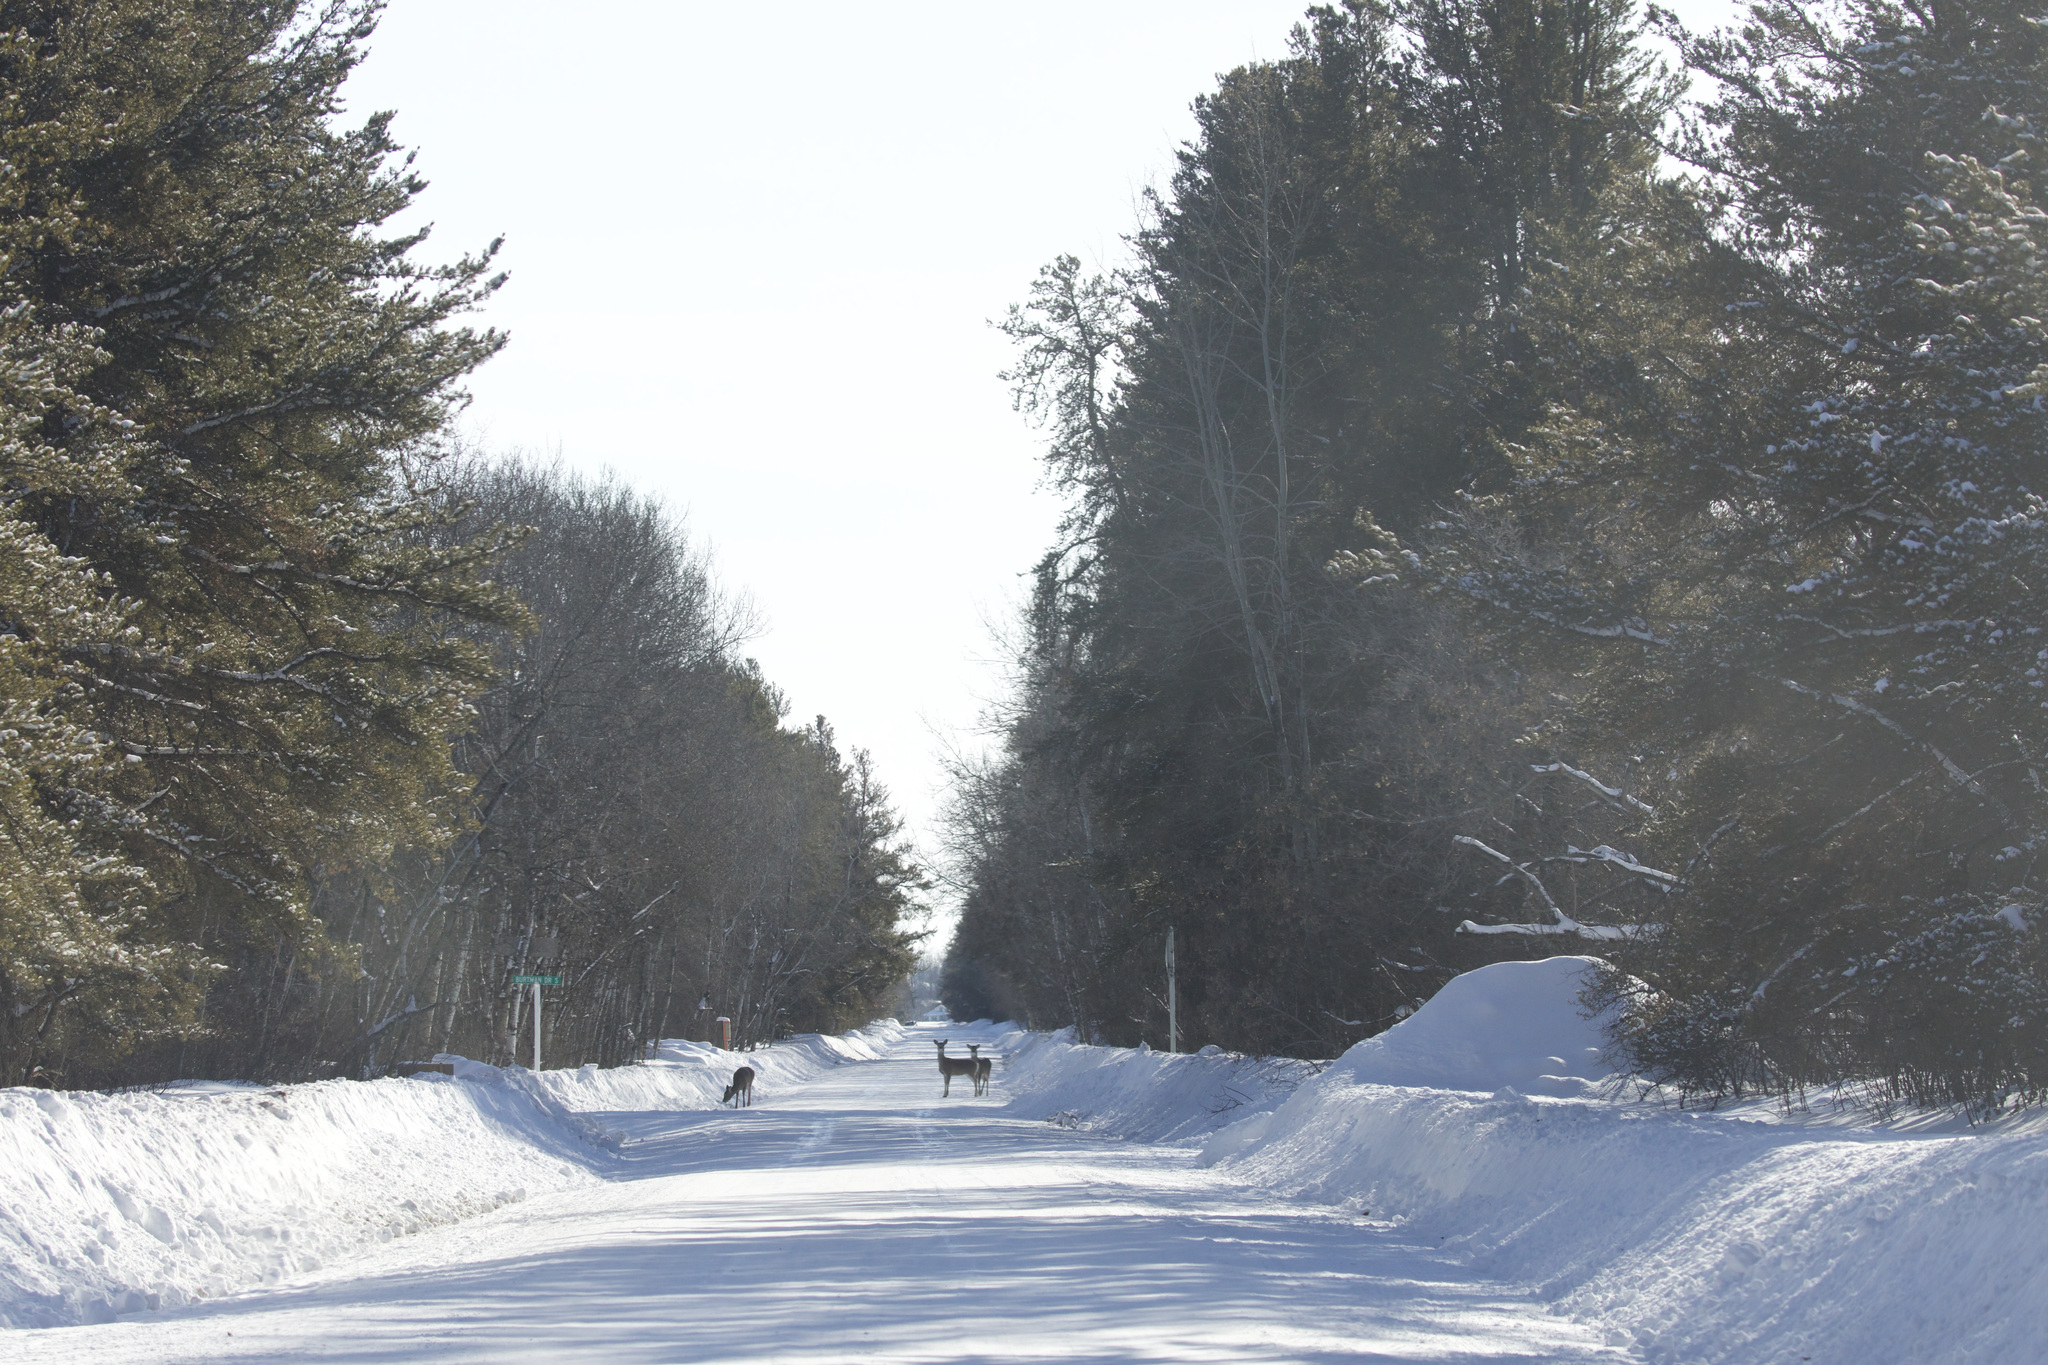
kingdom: Animalia
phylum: Chordata
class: Mammalia
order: Artiodactyla
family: Cervidae
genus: Odocoileus
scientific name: Odocoileus virginianus
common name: White-tailed deer
